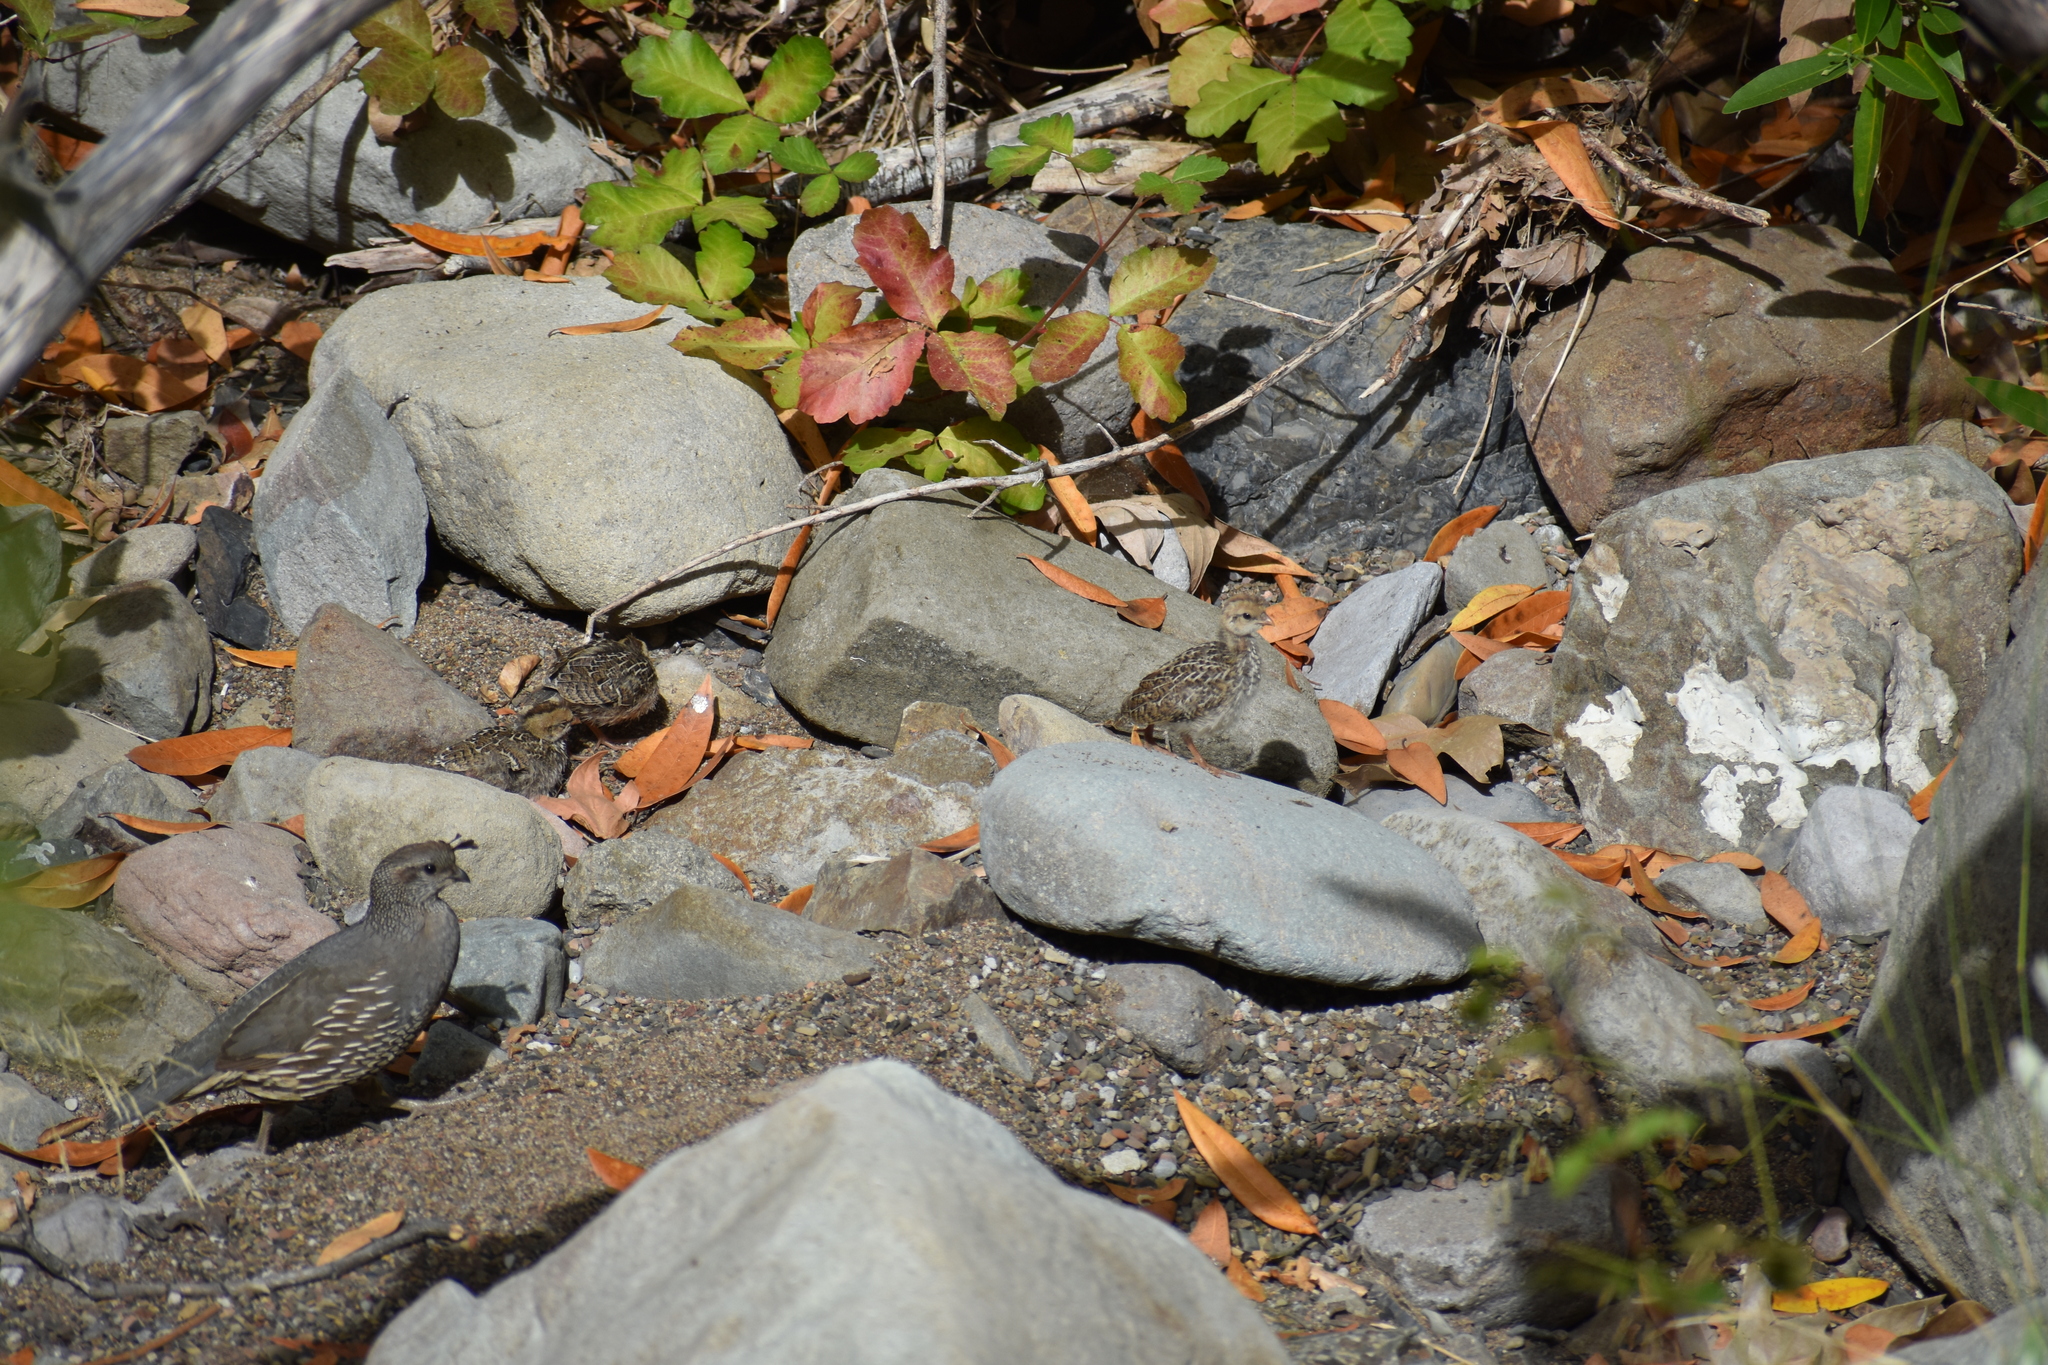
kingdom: Animalia
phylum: Chordata
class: Aves
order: Galliformes
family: Odontophoridae
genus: Callipepla
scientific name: Callipepla californica
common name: California quail
